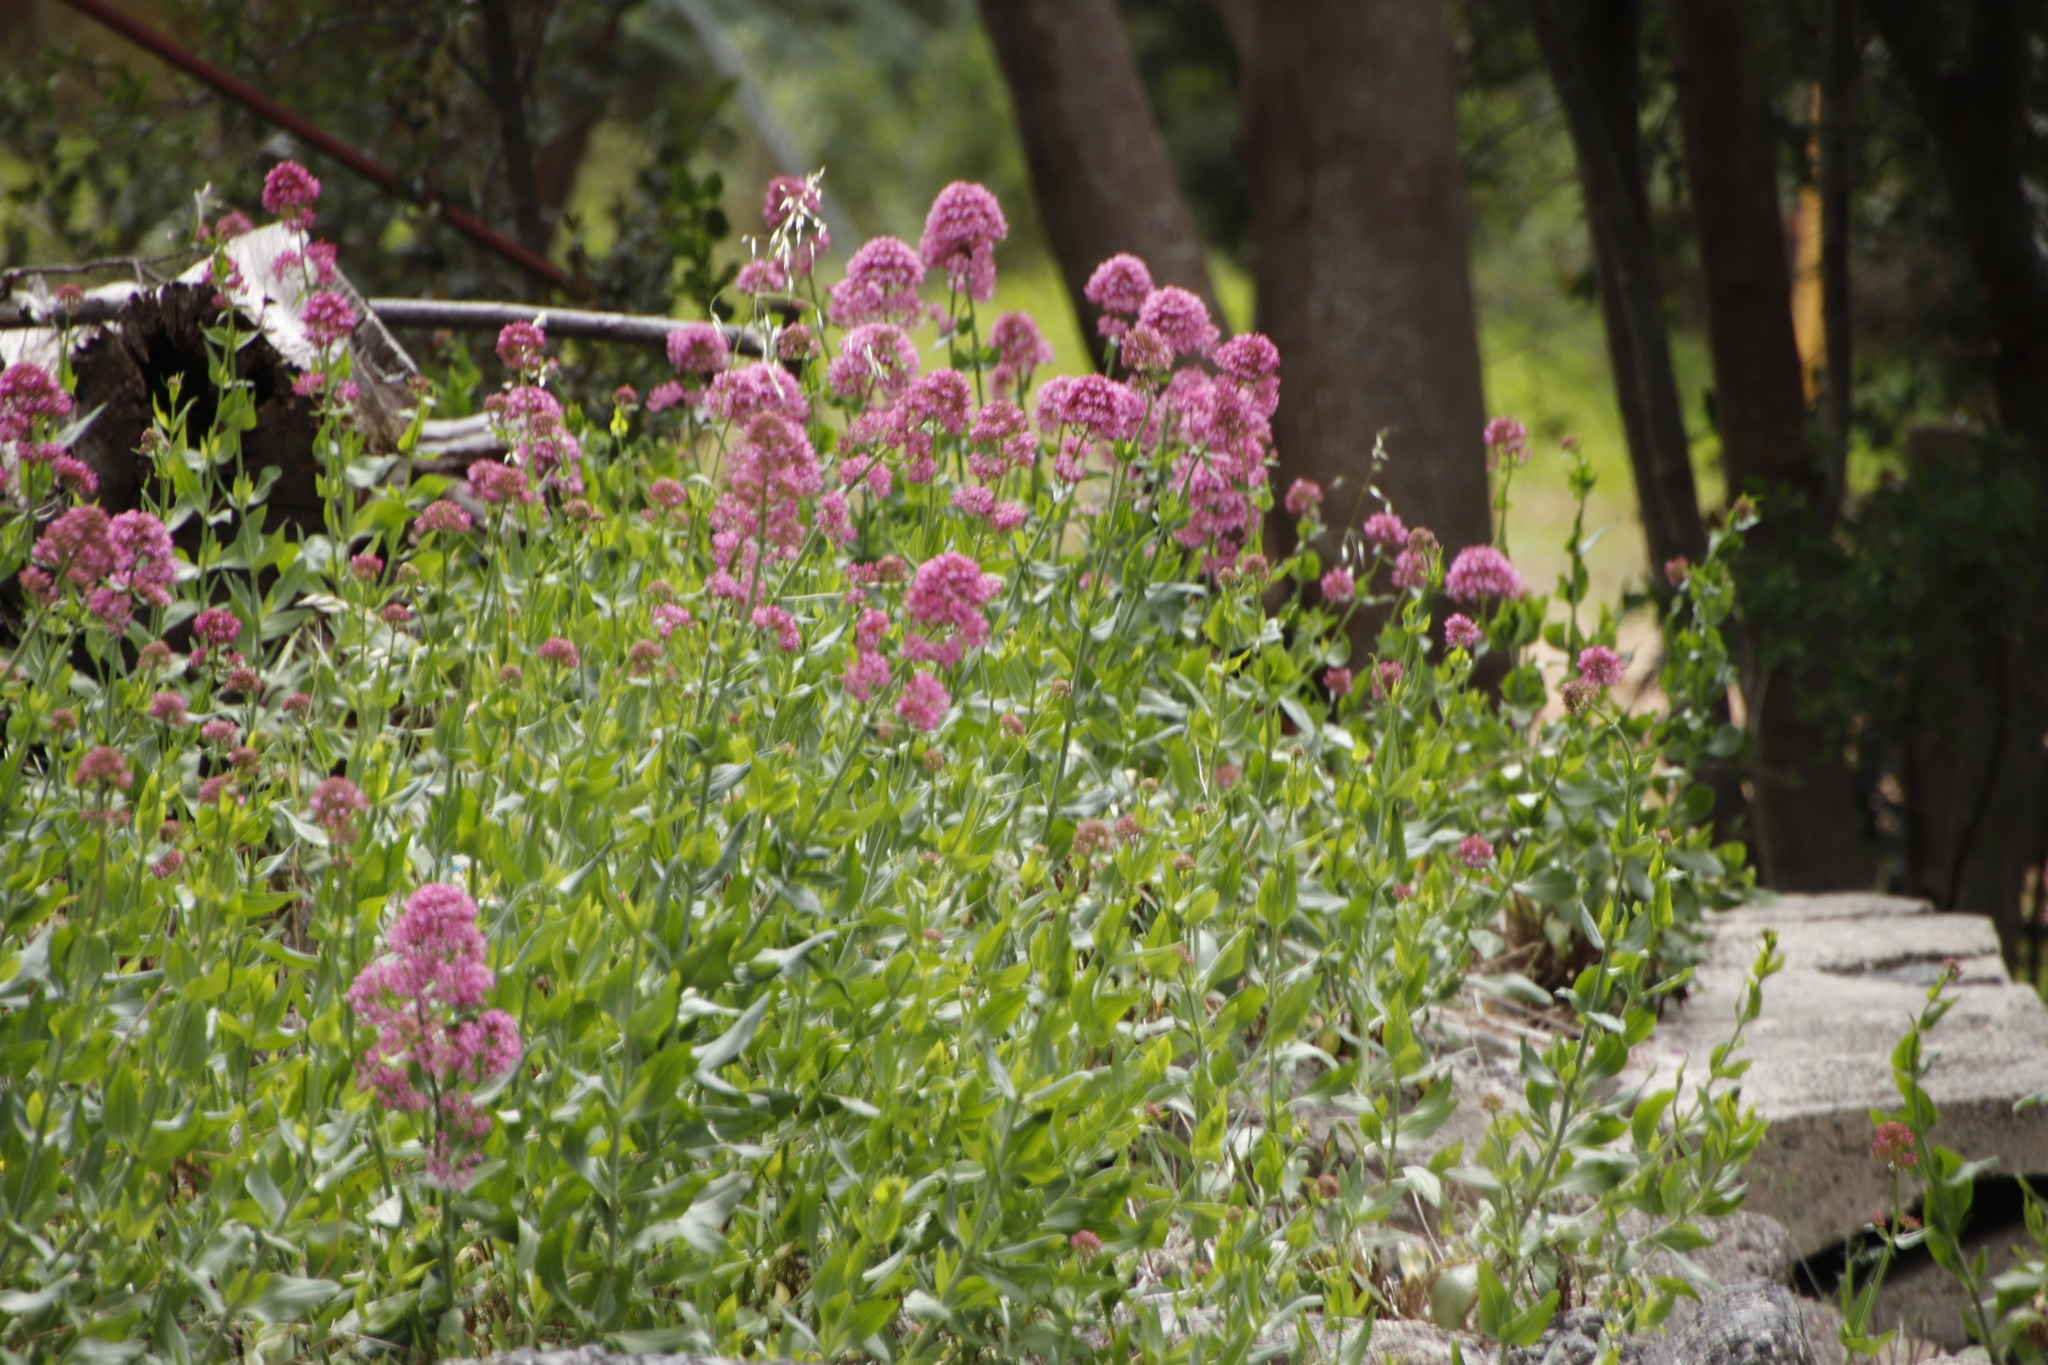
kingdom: Plantae
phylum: Tracheophyta
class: Magnoliopsida
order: Dipsacales
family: Caprifoliaceae
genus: Centranthus
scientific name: Centranthus ruber
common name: Red valerian
